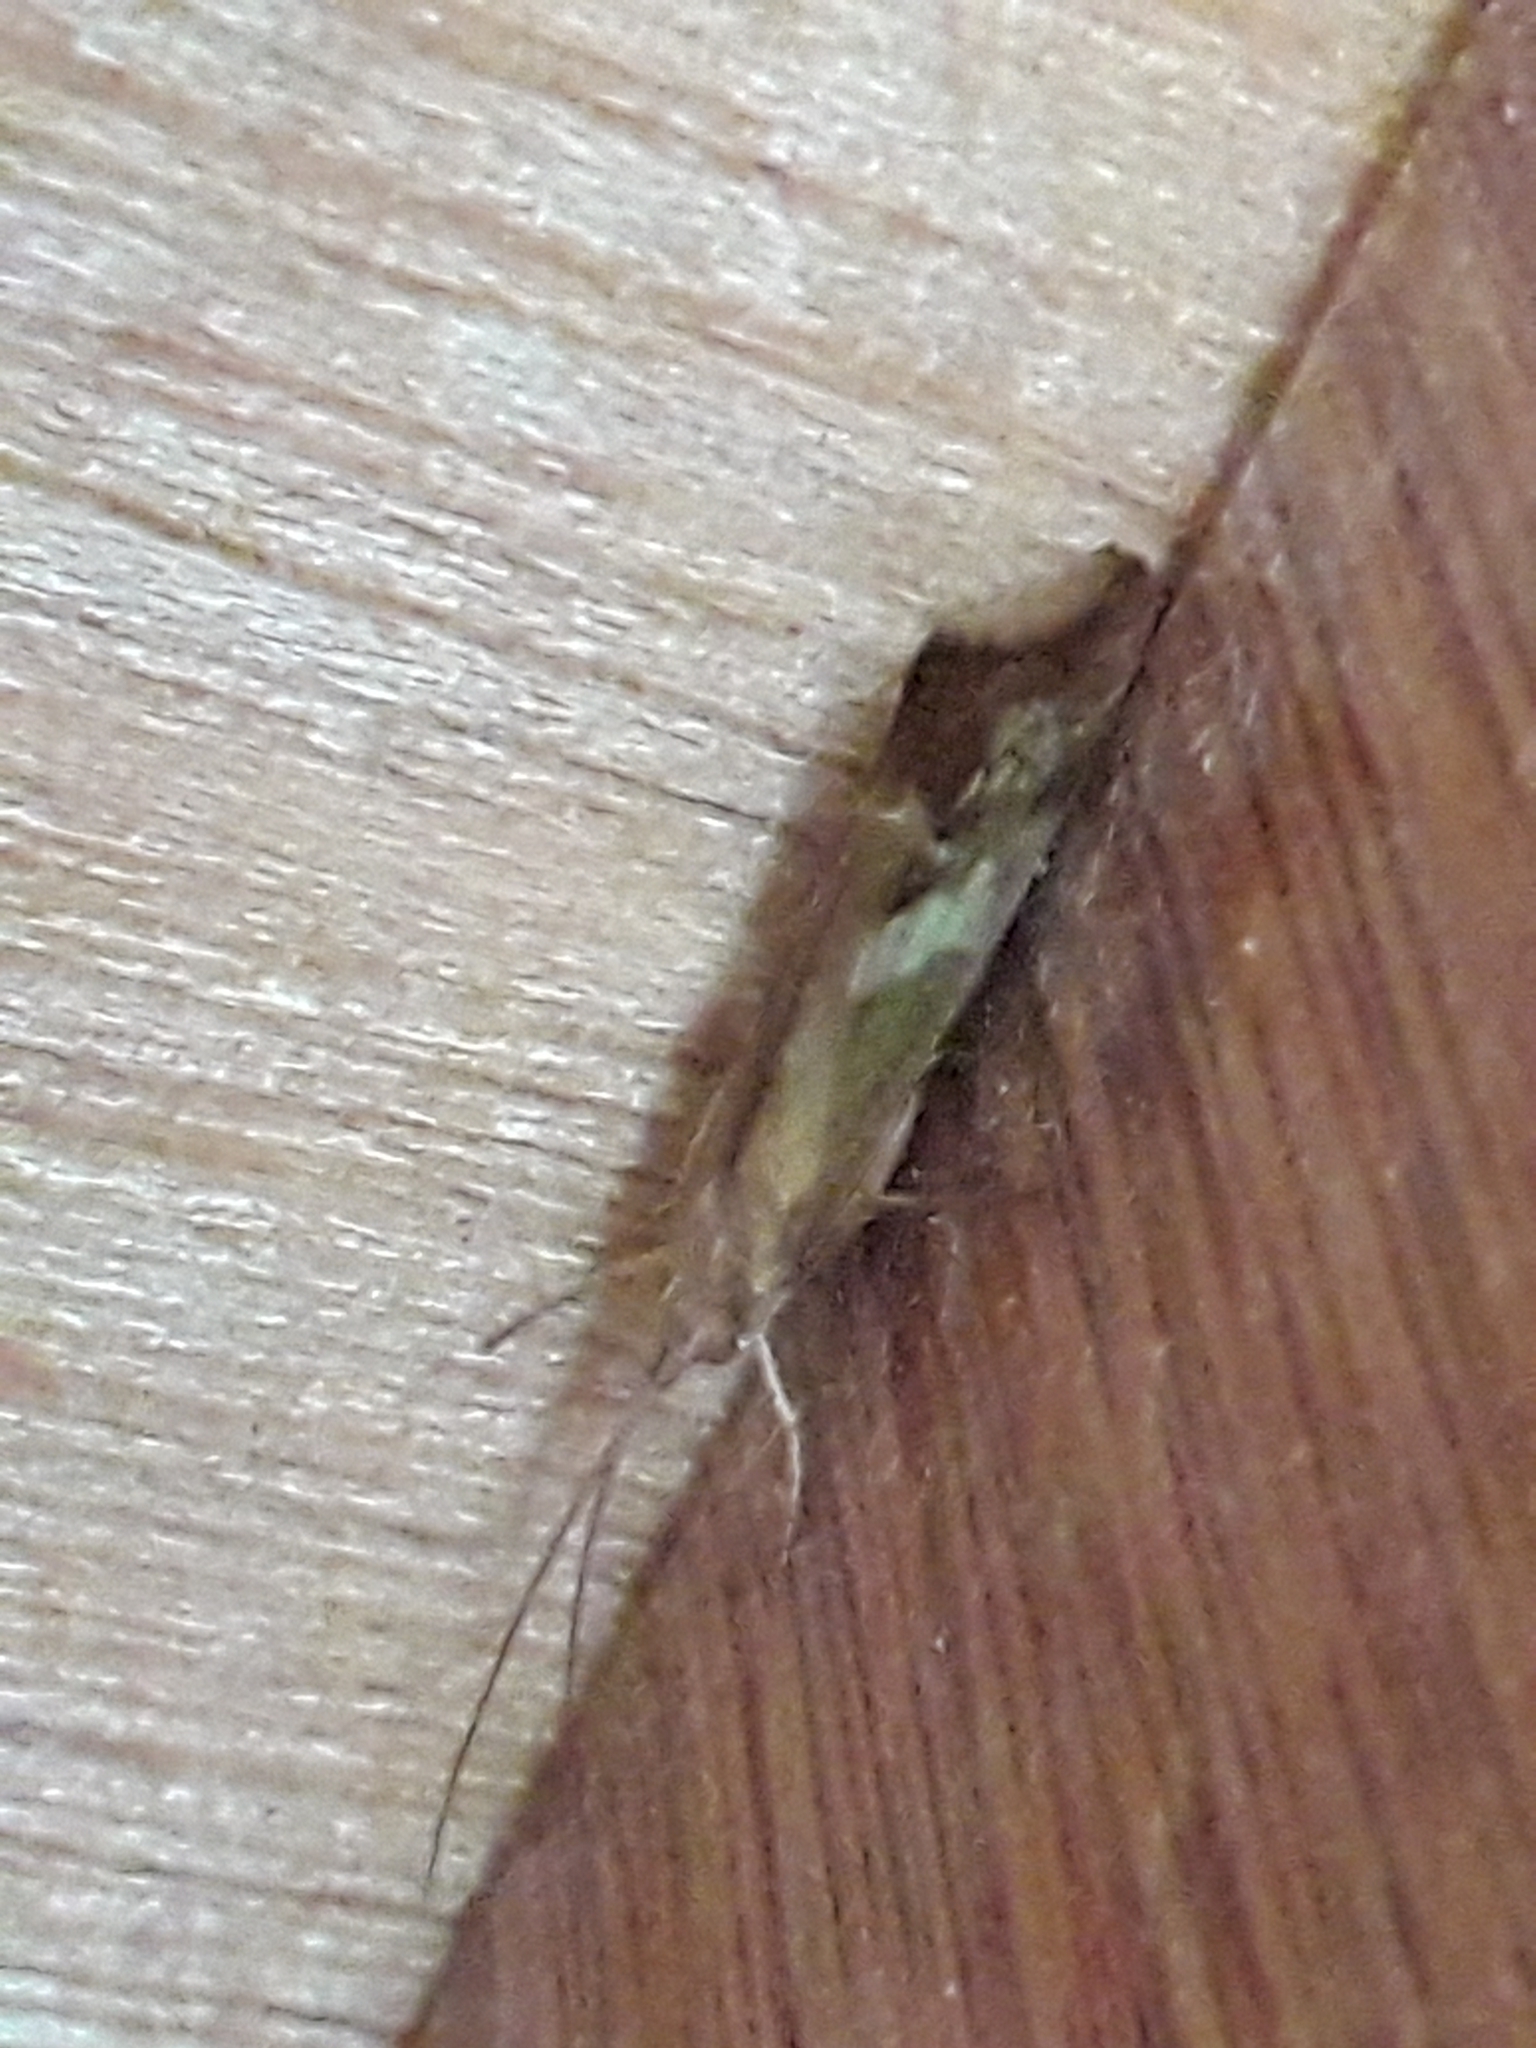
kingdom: Animalia
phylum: Arthropoda
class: Insecta
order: Trichoptera
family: Limnephilidae
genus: Limnephilus
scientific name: Limnephilus lunatus
